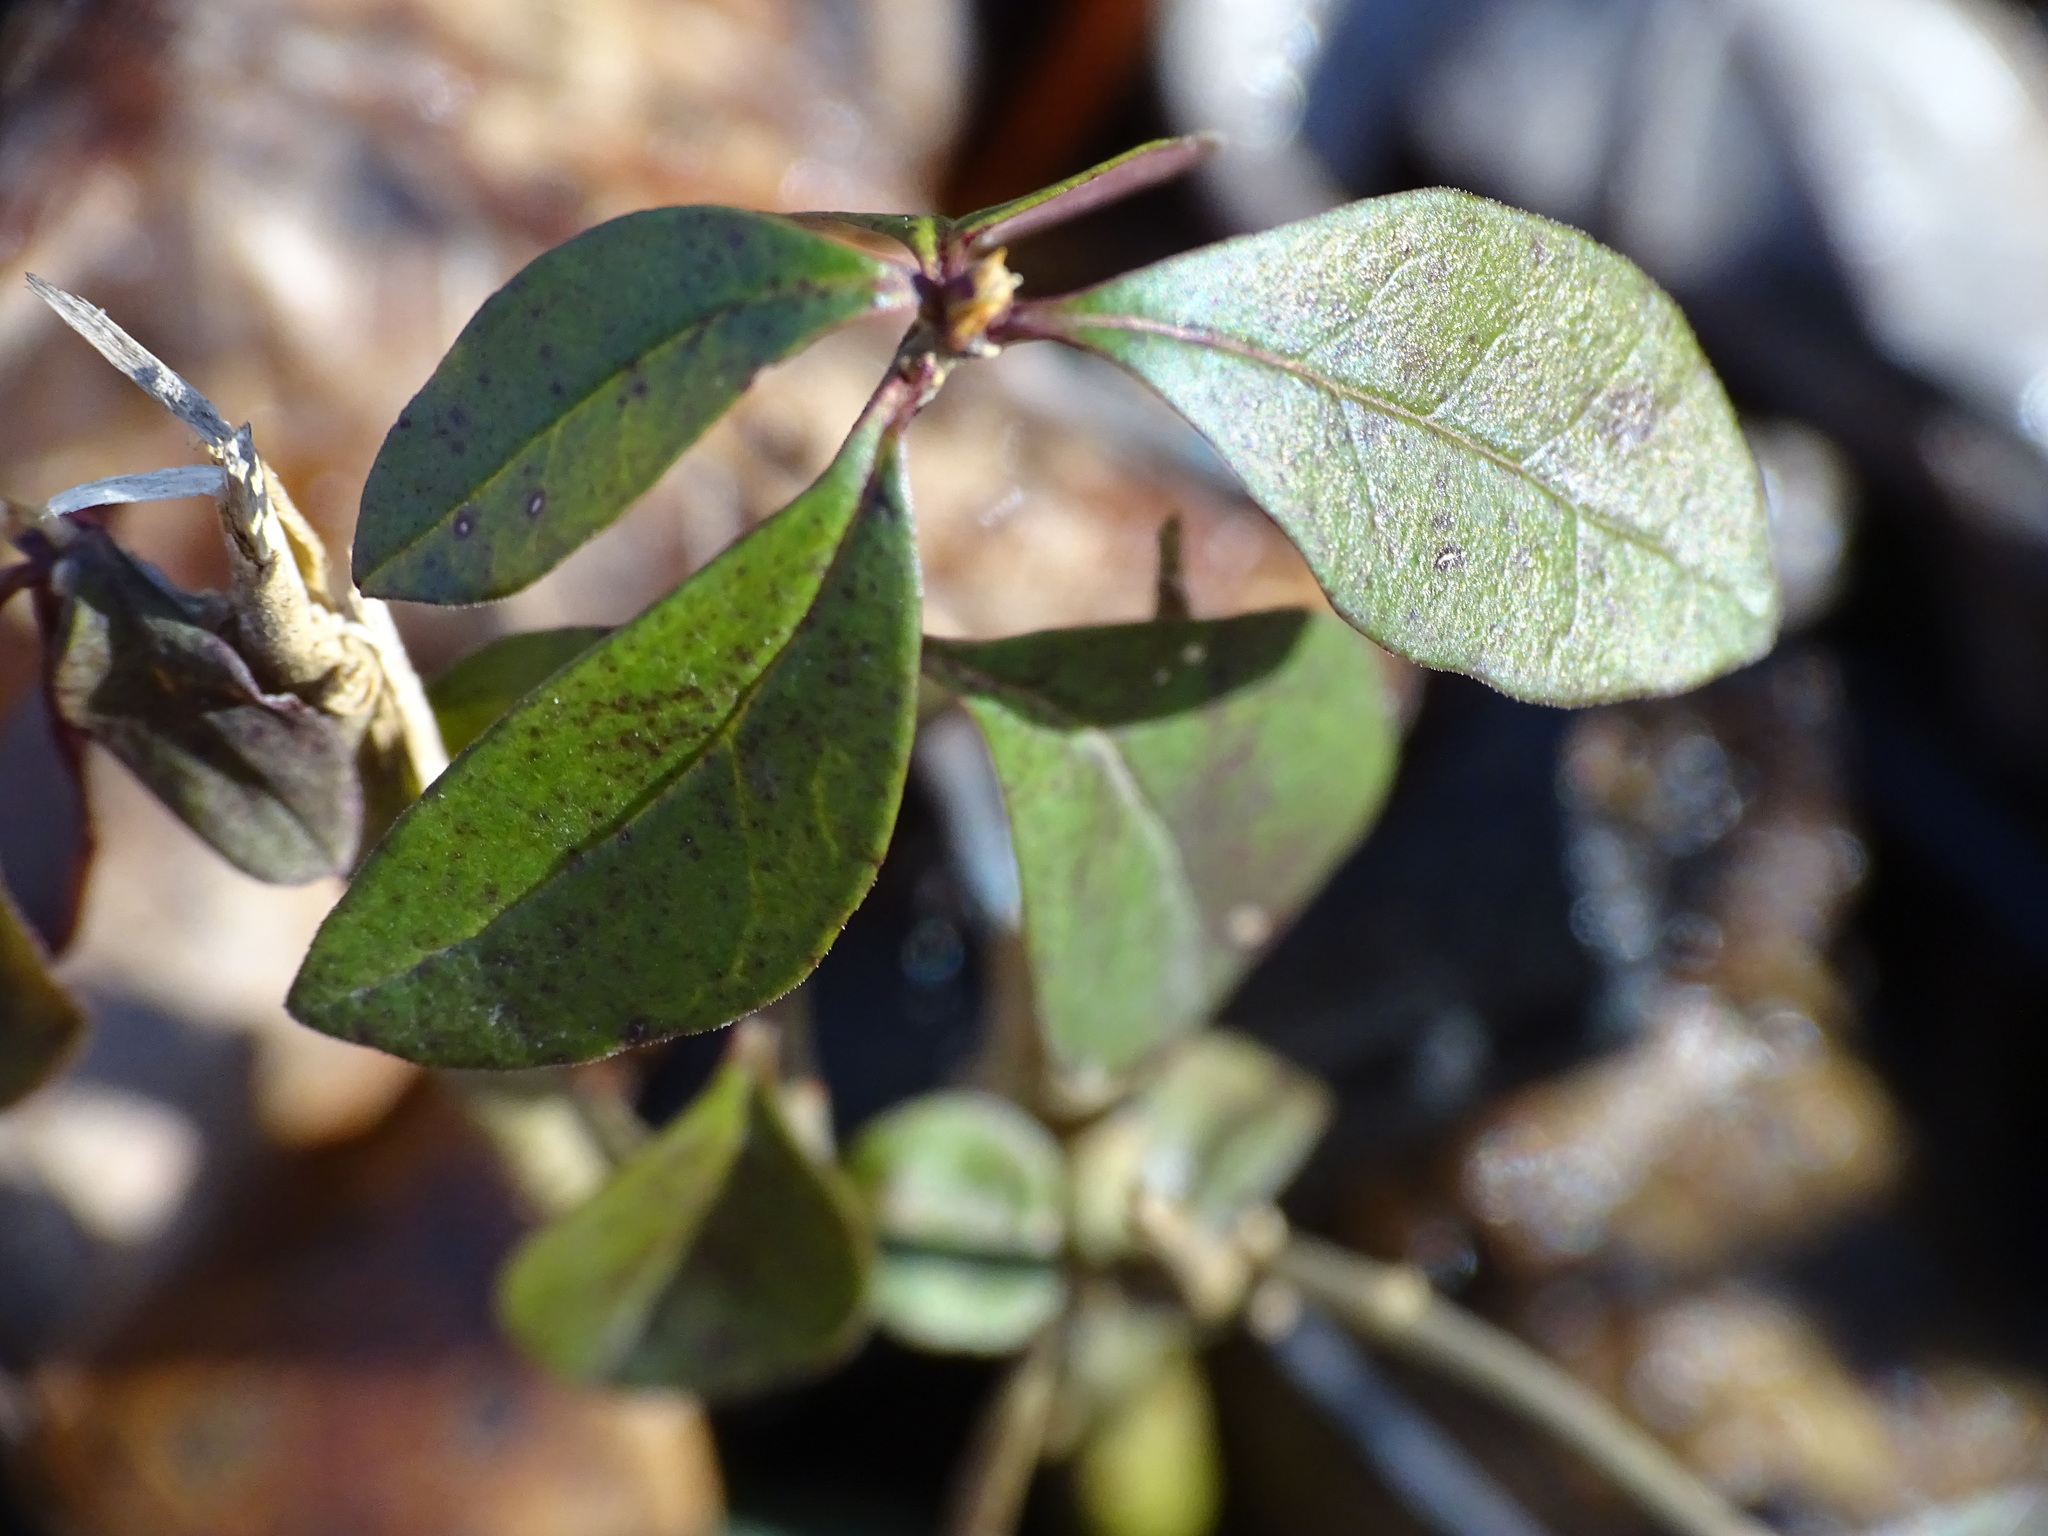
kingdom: Plantae
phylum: Tracheophyta
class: Magnoliopsida
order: Ericales
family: Ericaceae
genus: Gaultheria
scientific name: Gaultheria procumbens
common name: Checkerberry
